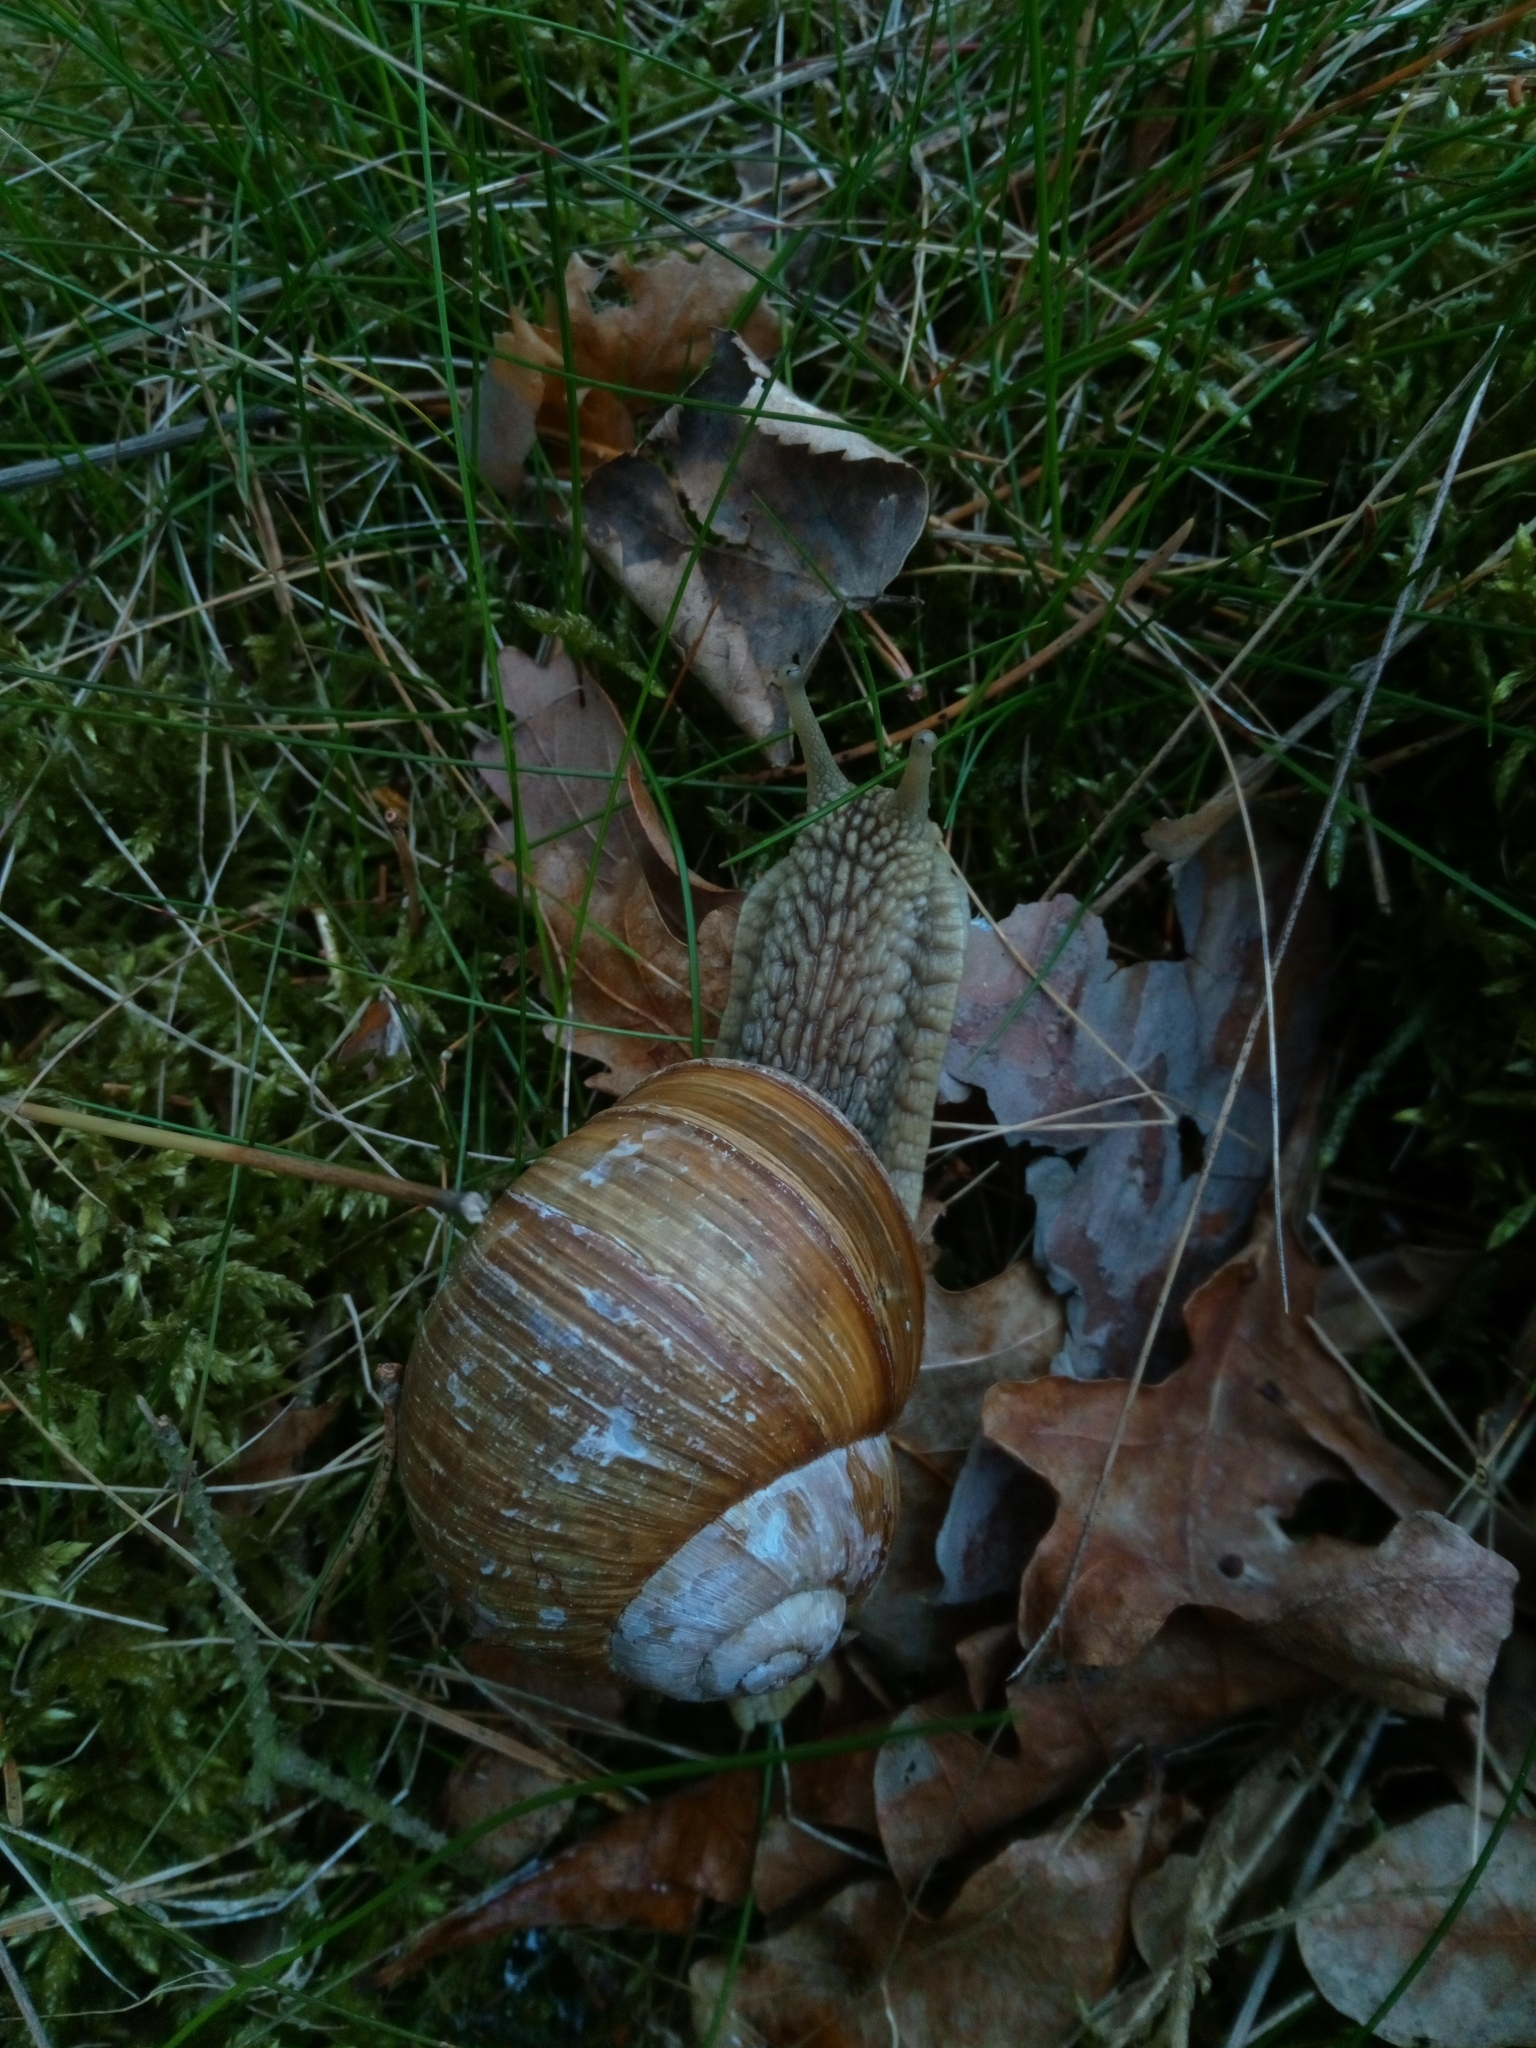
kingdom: Animalia
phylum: Mollusca
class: Gastropoda
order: Stylommatophora
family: Helicidae
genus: Helix
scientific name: Helix pomatia
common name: Roman snail
